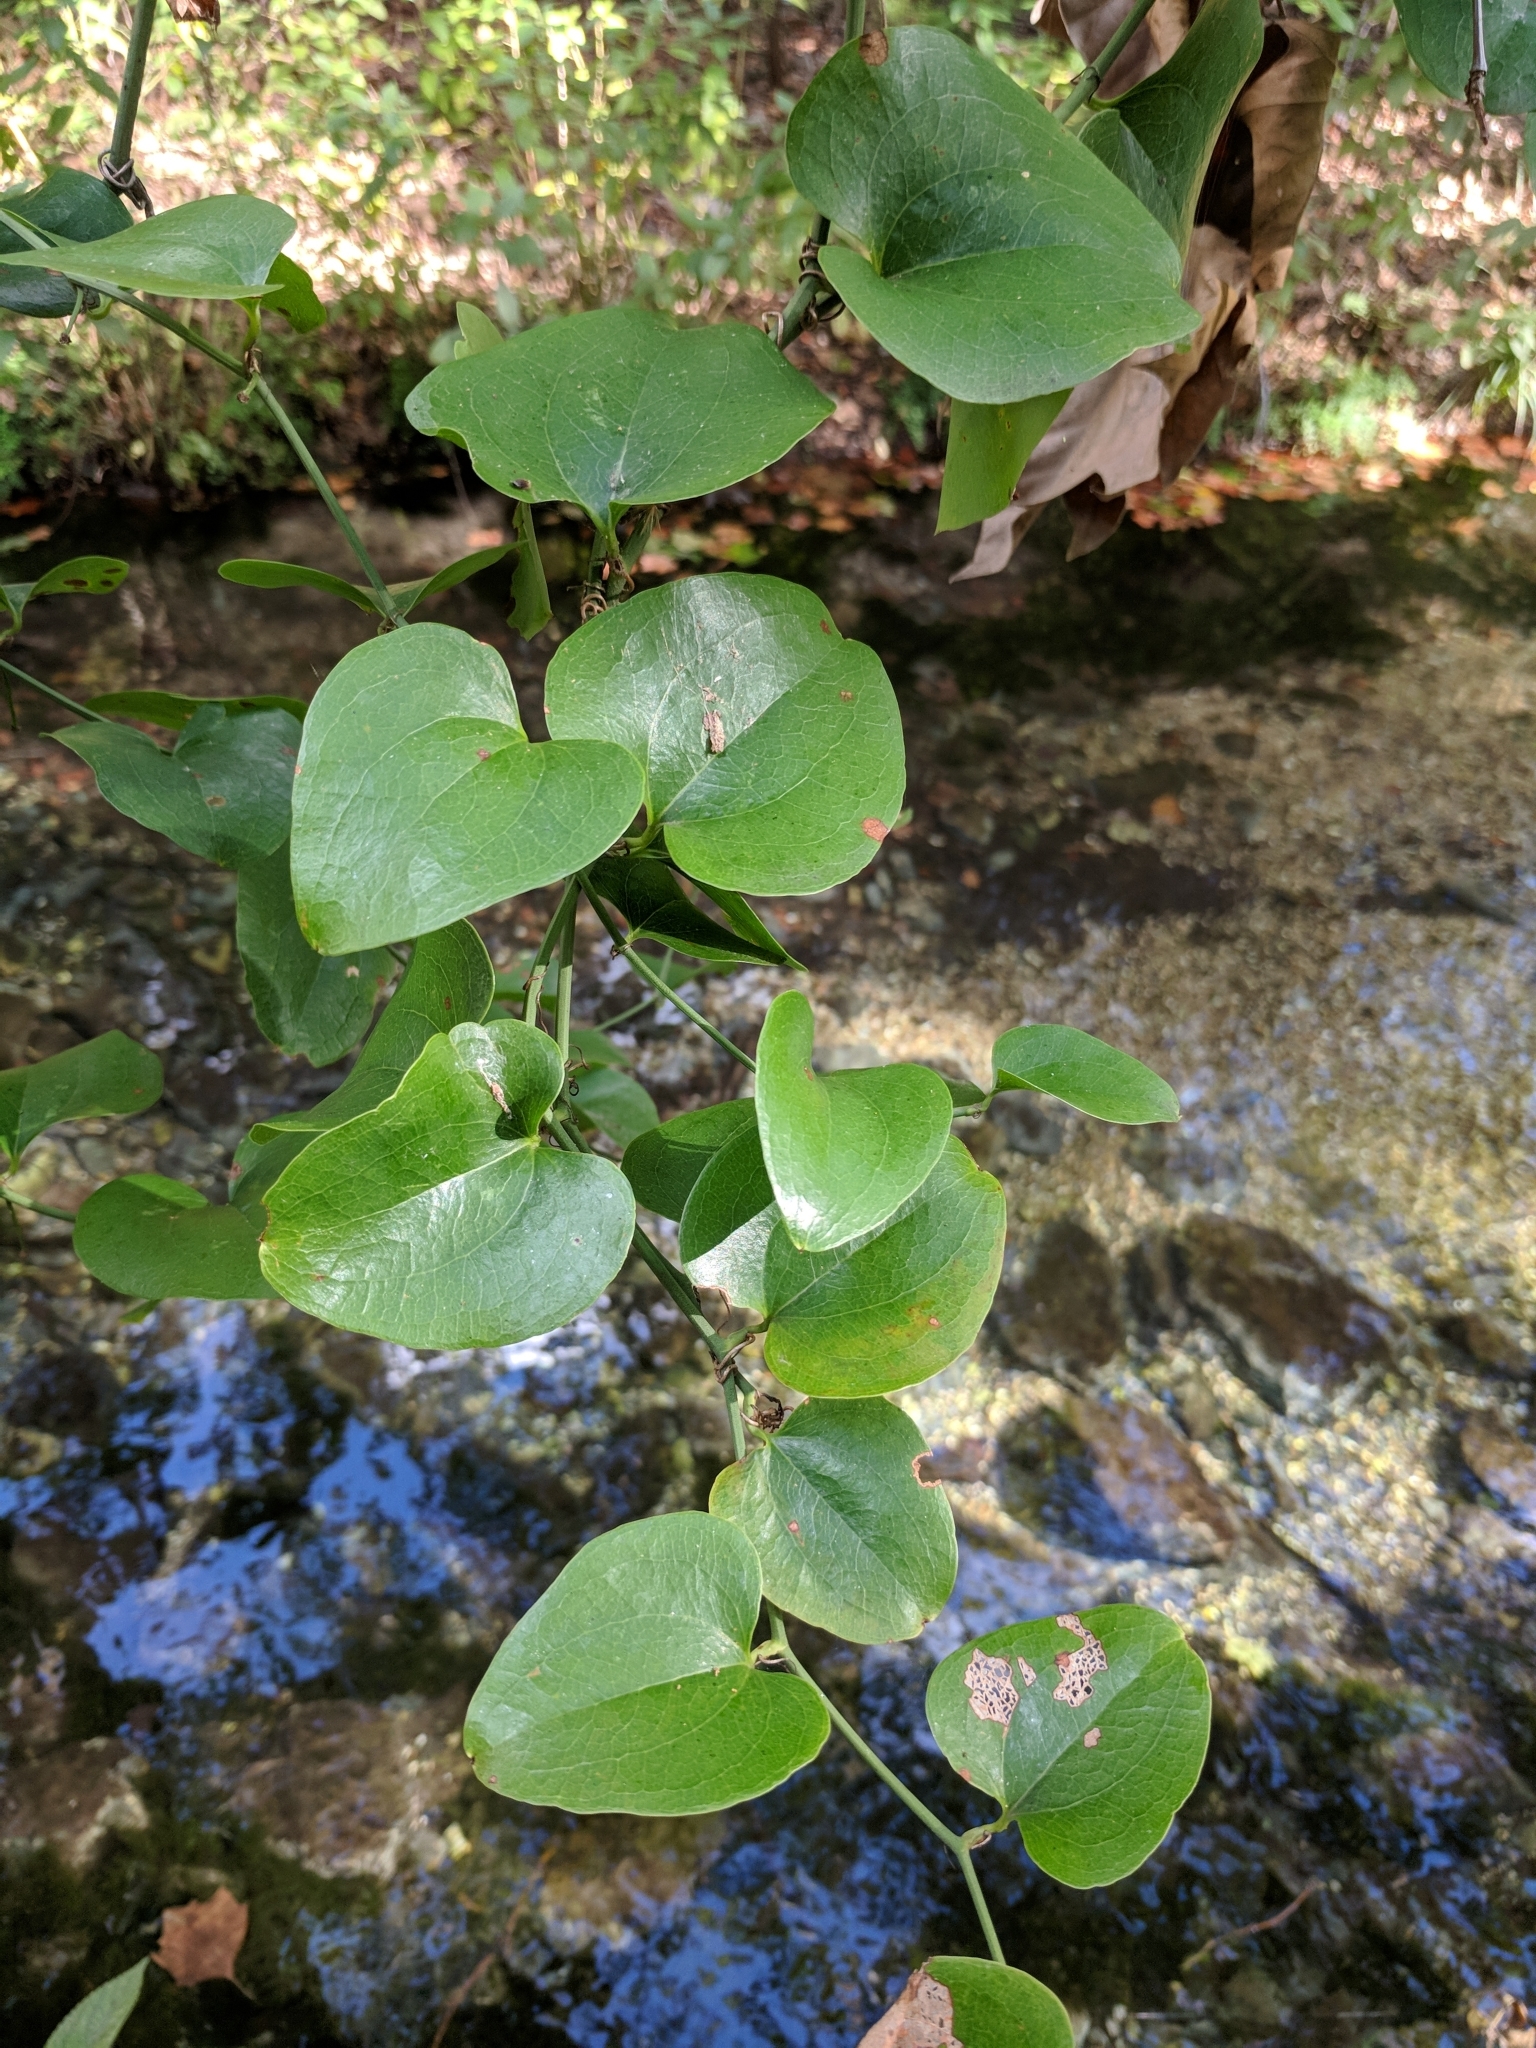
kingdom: Plantae
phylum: Tracheophyta
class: Liliopsida
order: Liliales
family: Smilacaceae
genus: Smilax
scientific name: Smilax rotundifolia
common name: Bullbriar
